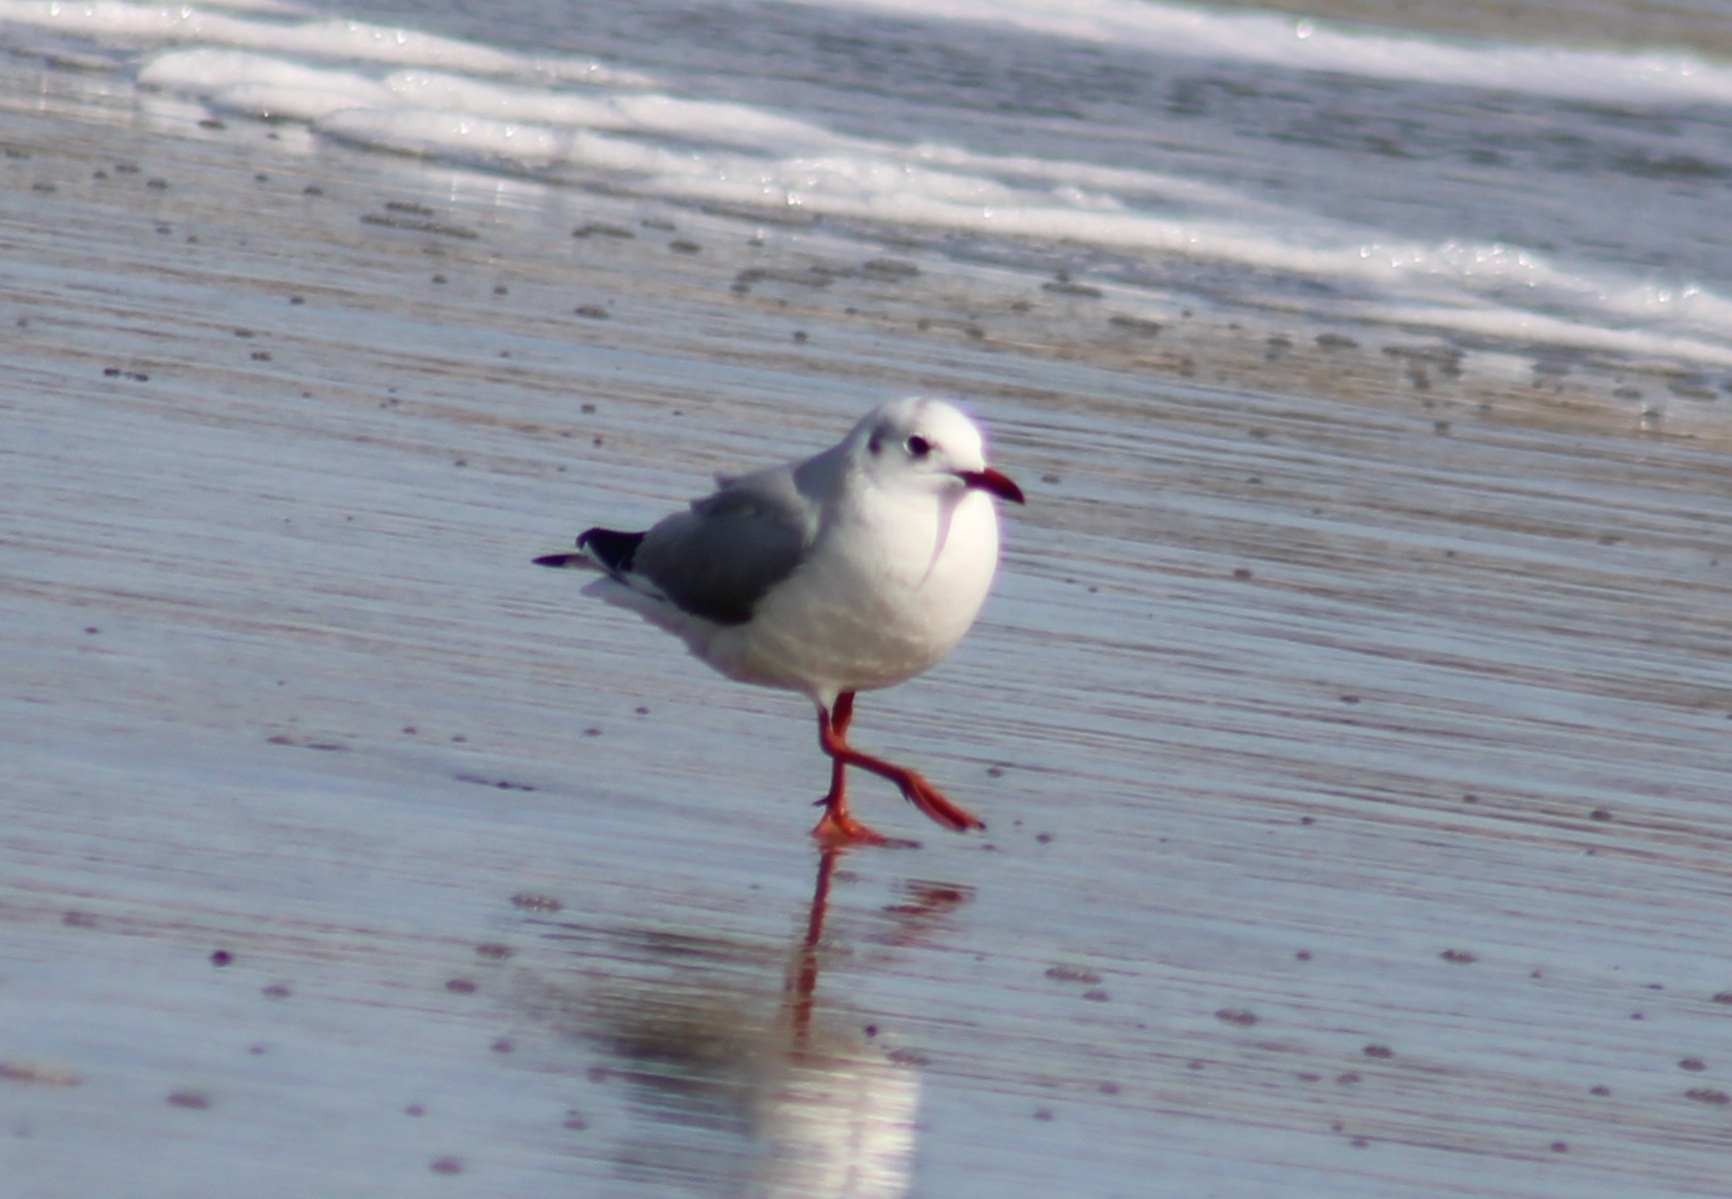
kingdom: Animalia
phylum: Chordata
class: Aves
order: Charadriiformes
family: Laridae
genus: Chroicocephalus
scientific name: Chroicocephalus ridibundus
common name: Black-headed gull
